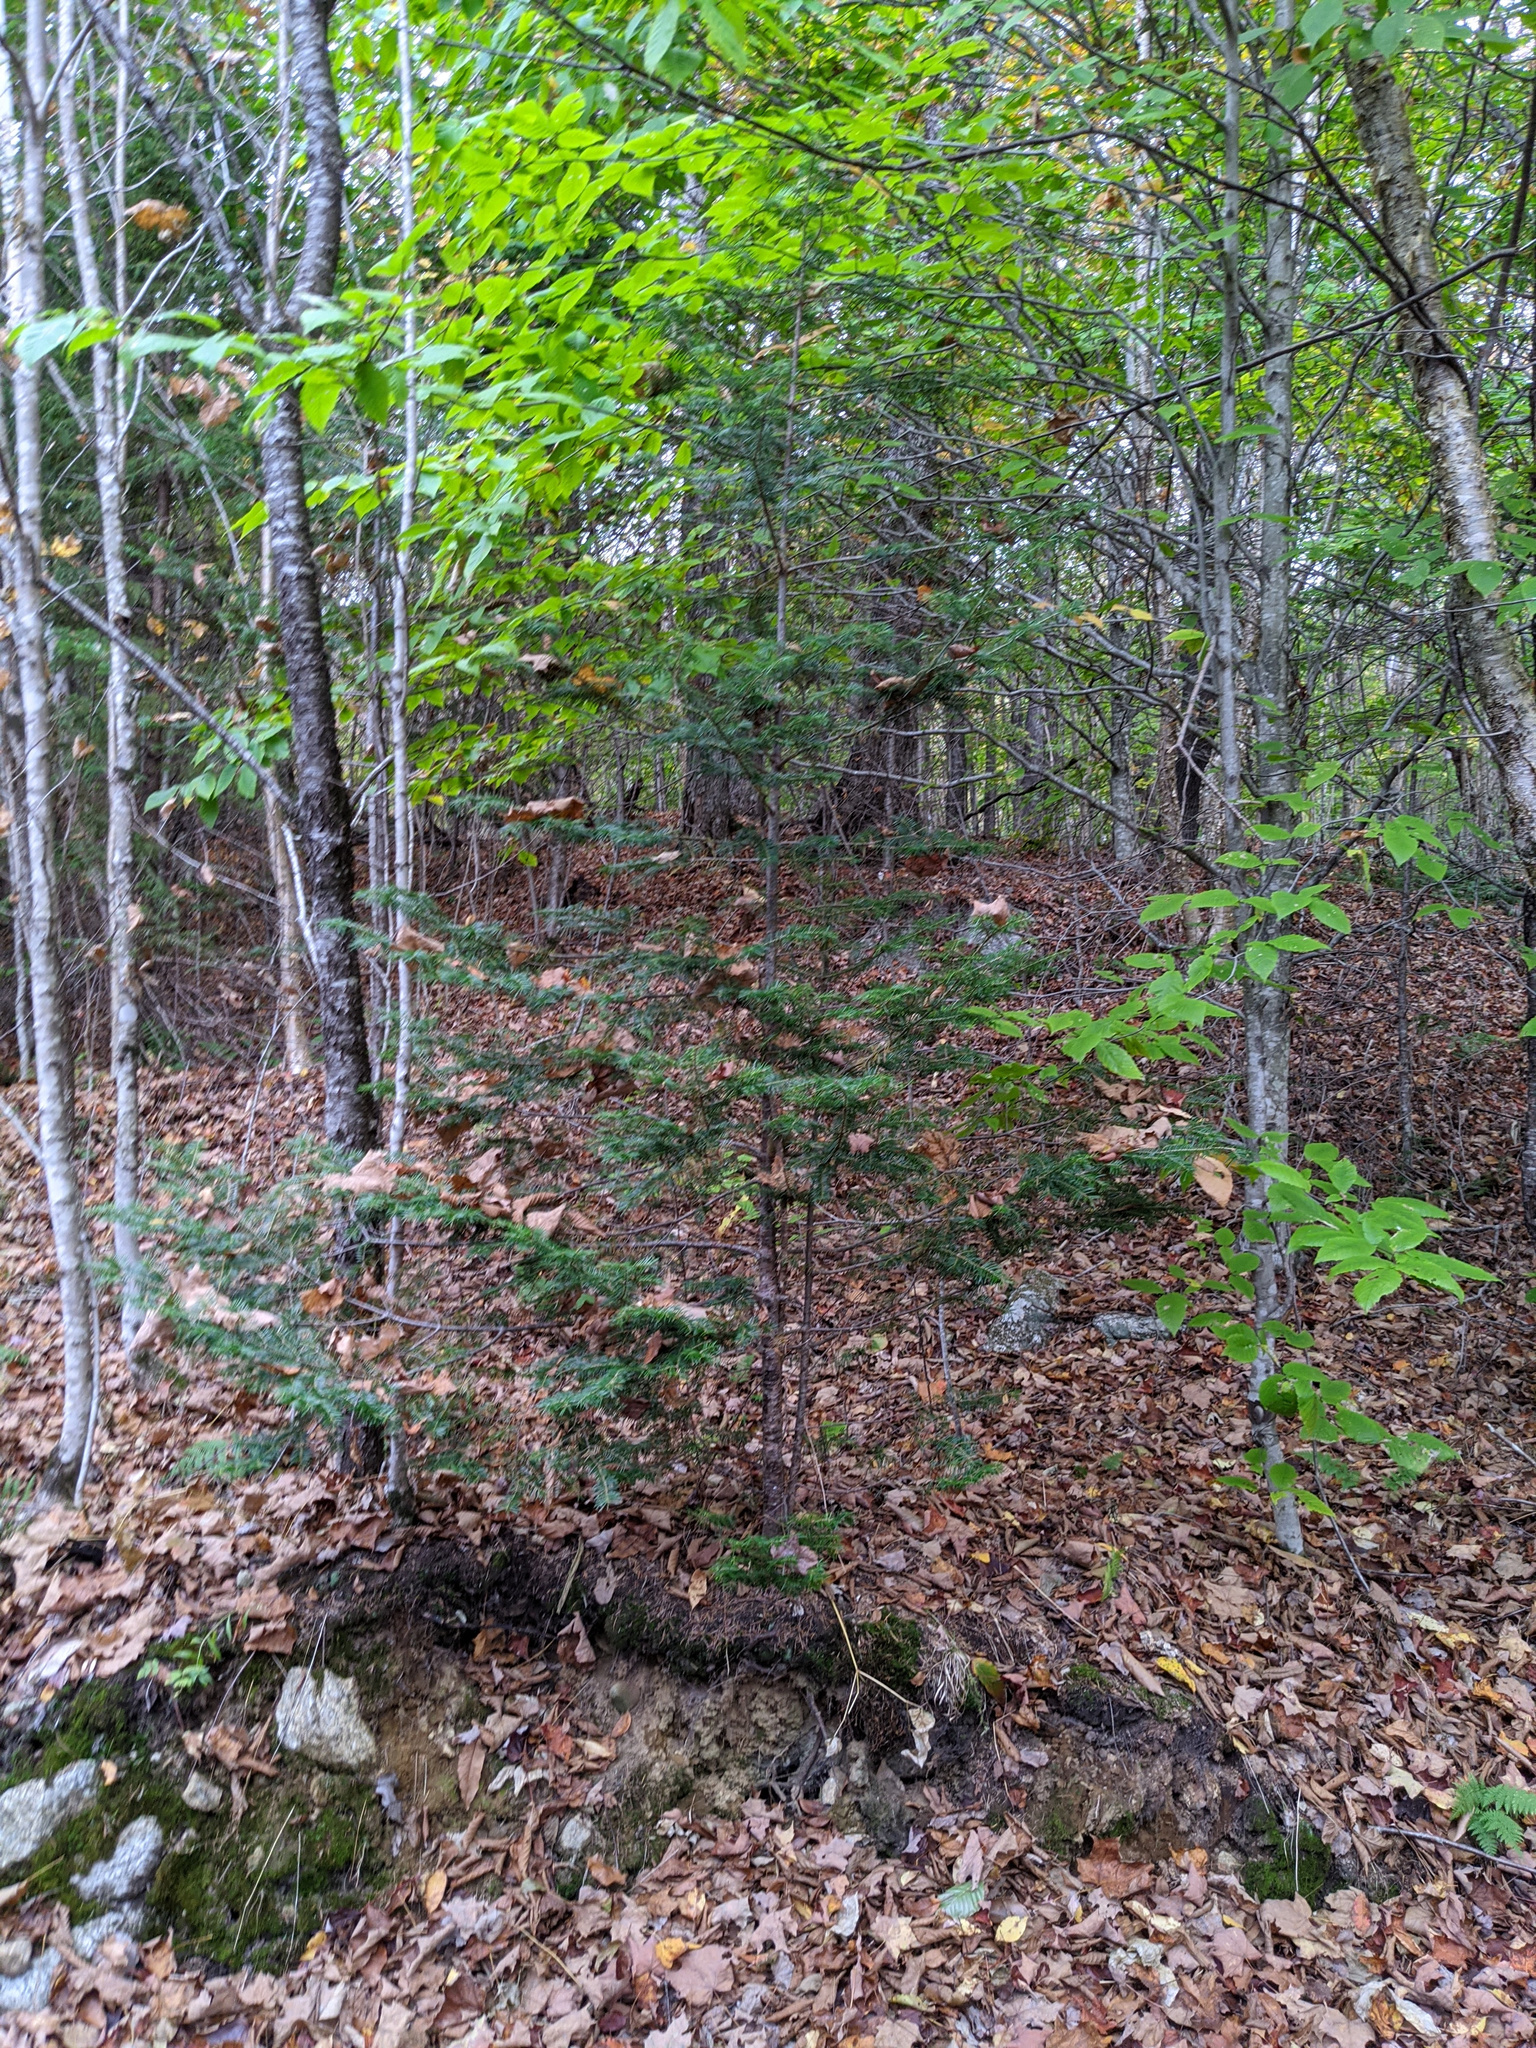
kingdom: Plantae
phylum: Tracheophyta
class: Pinopsida
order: Pinales
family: Pinaceae
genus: Abies
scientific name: Abies balsamea
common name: Balsam fir
